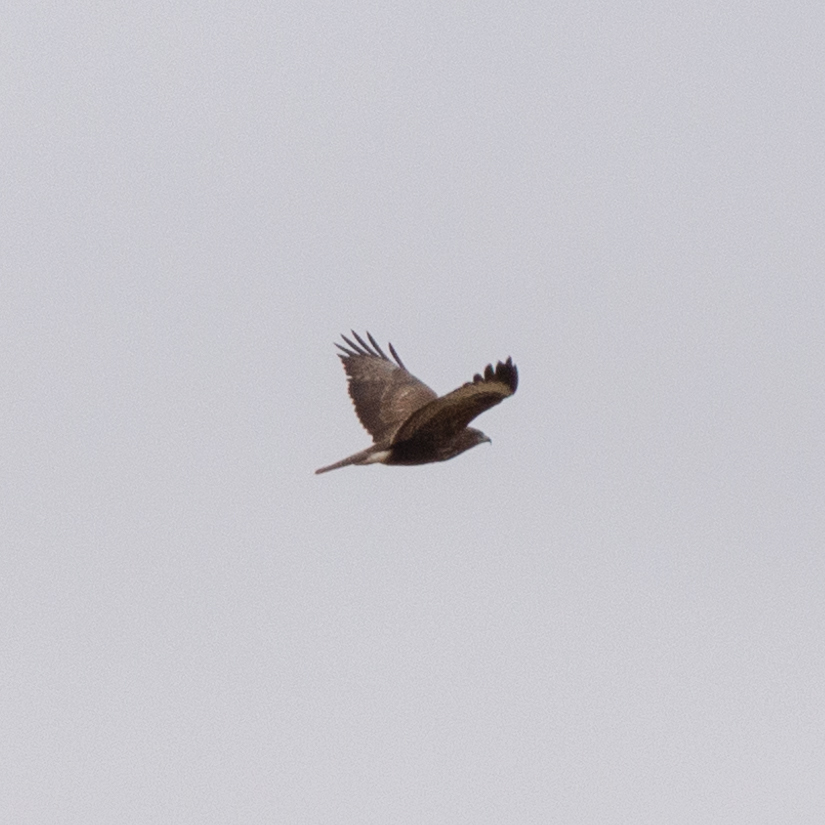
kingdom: Animalia
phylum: Chordata
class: Aves
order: Accipitriformes
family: Accipitridae
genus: Buteo
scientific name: Buteo buteo
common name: Common buzzard
